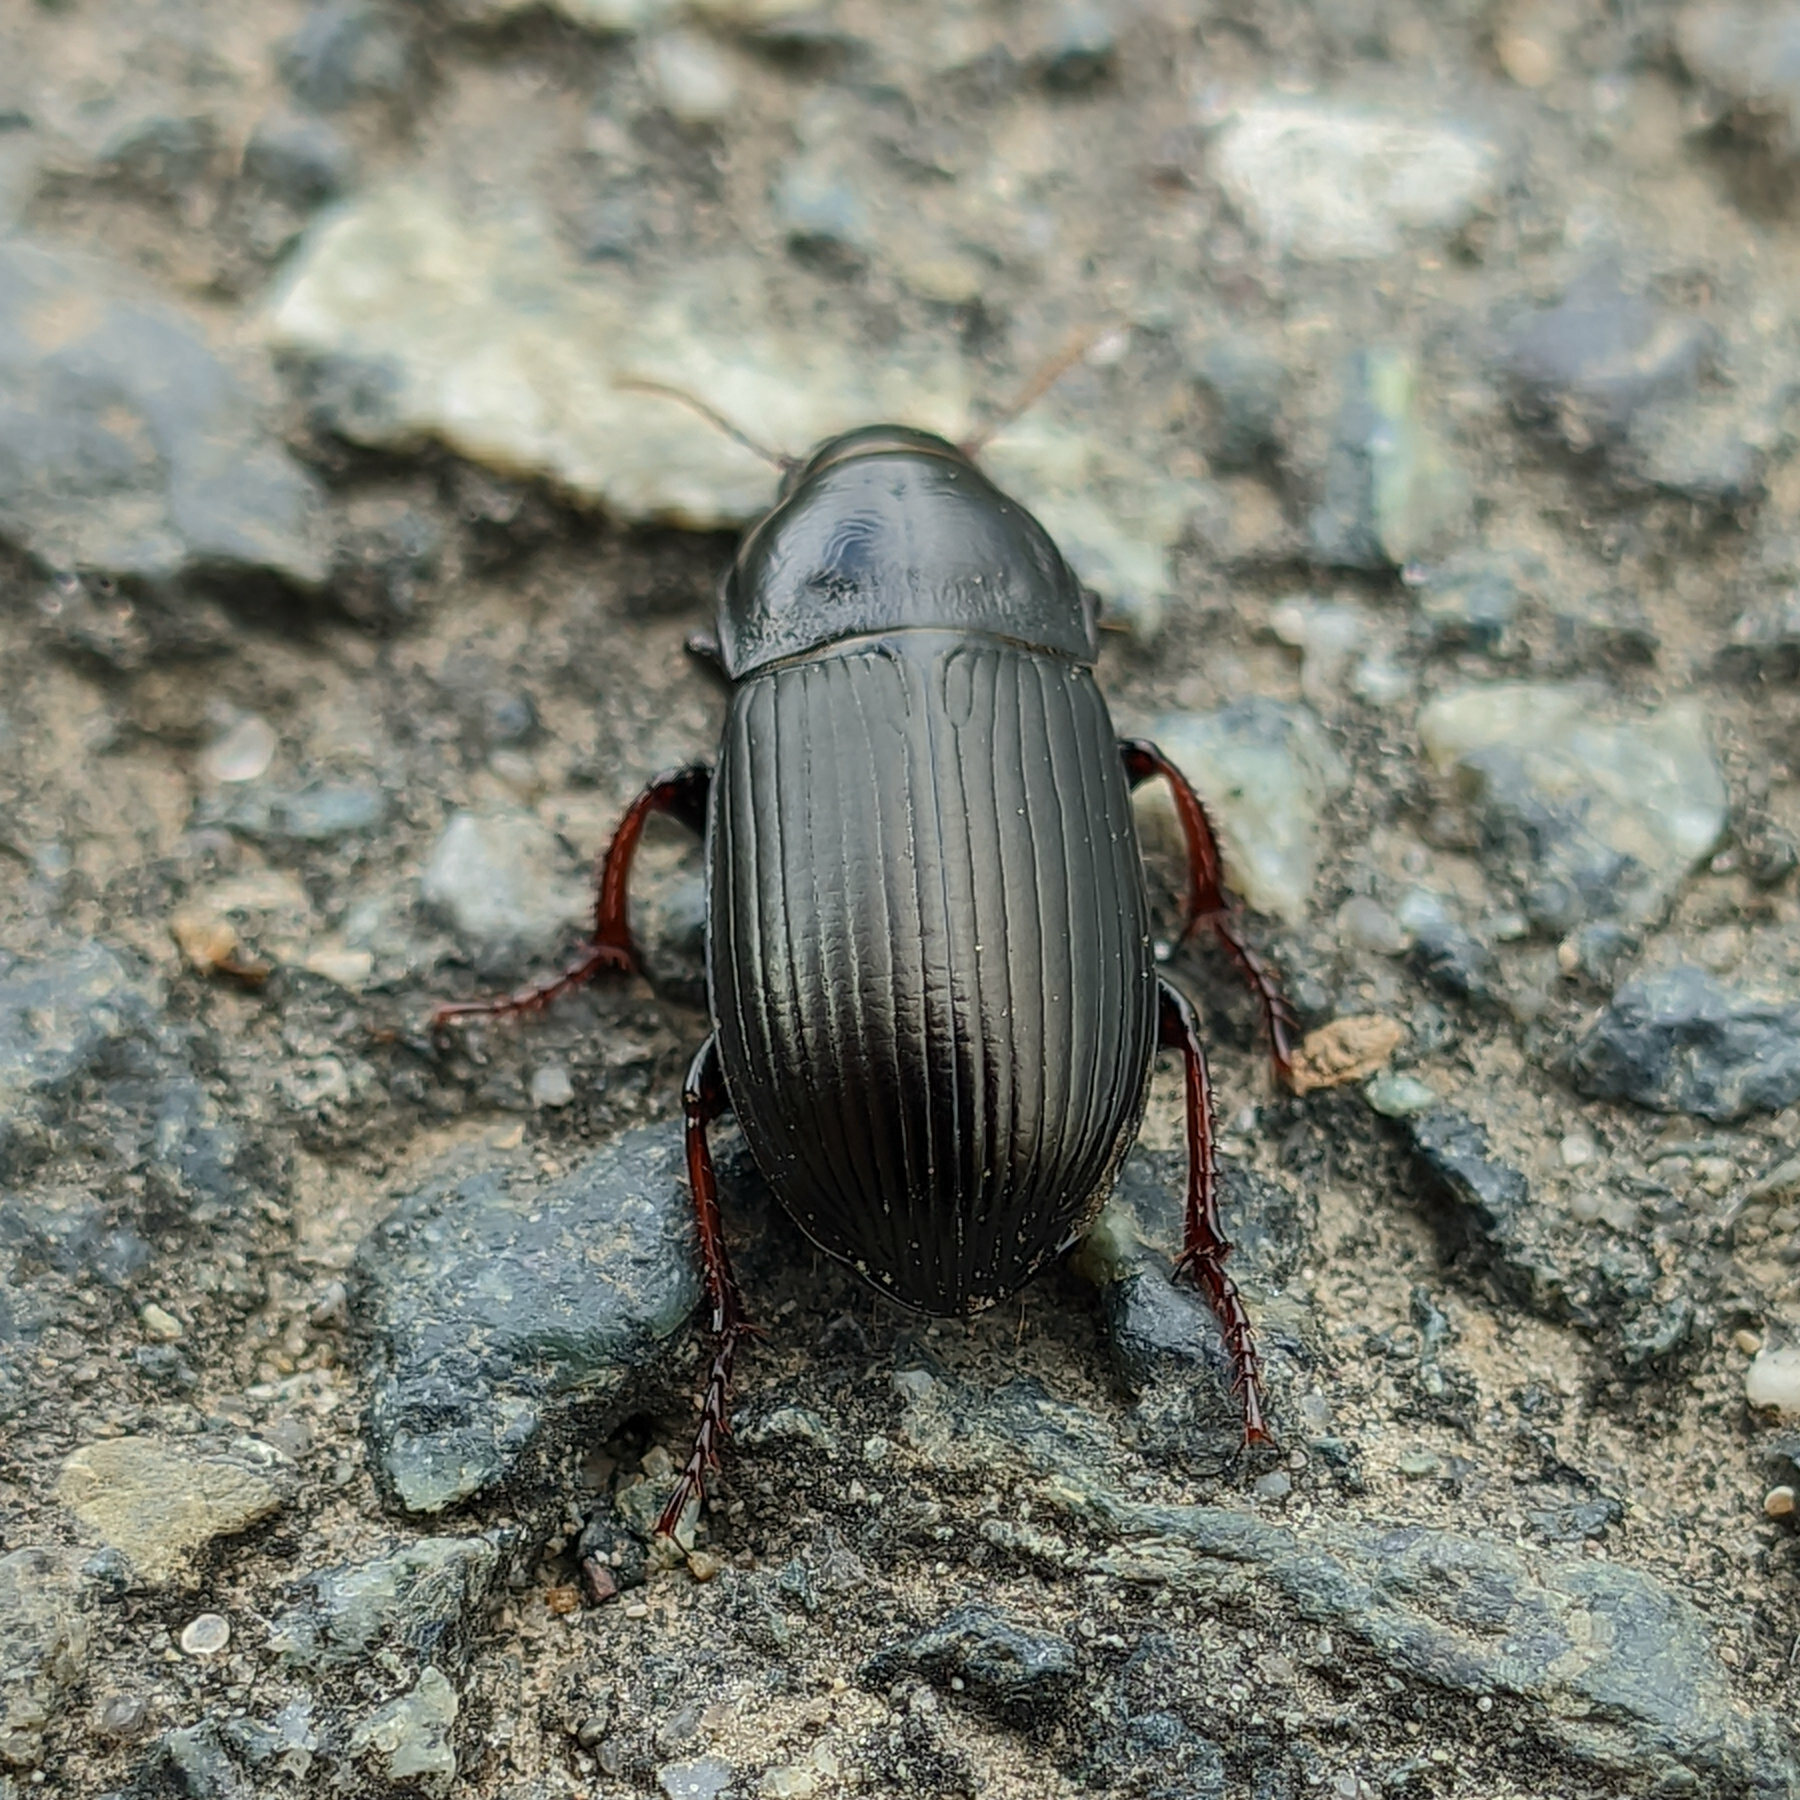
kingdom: Animalia
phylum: Arthropoda
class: Insecta
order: Coleoptera
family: Carabidae
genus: Zabrus
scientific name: Zabrus tenebrioides
